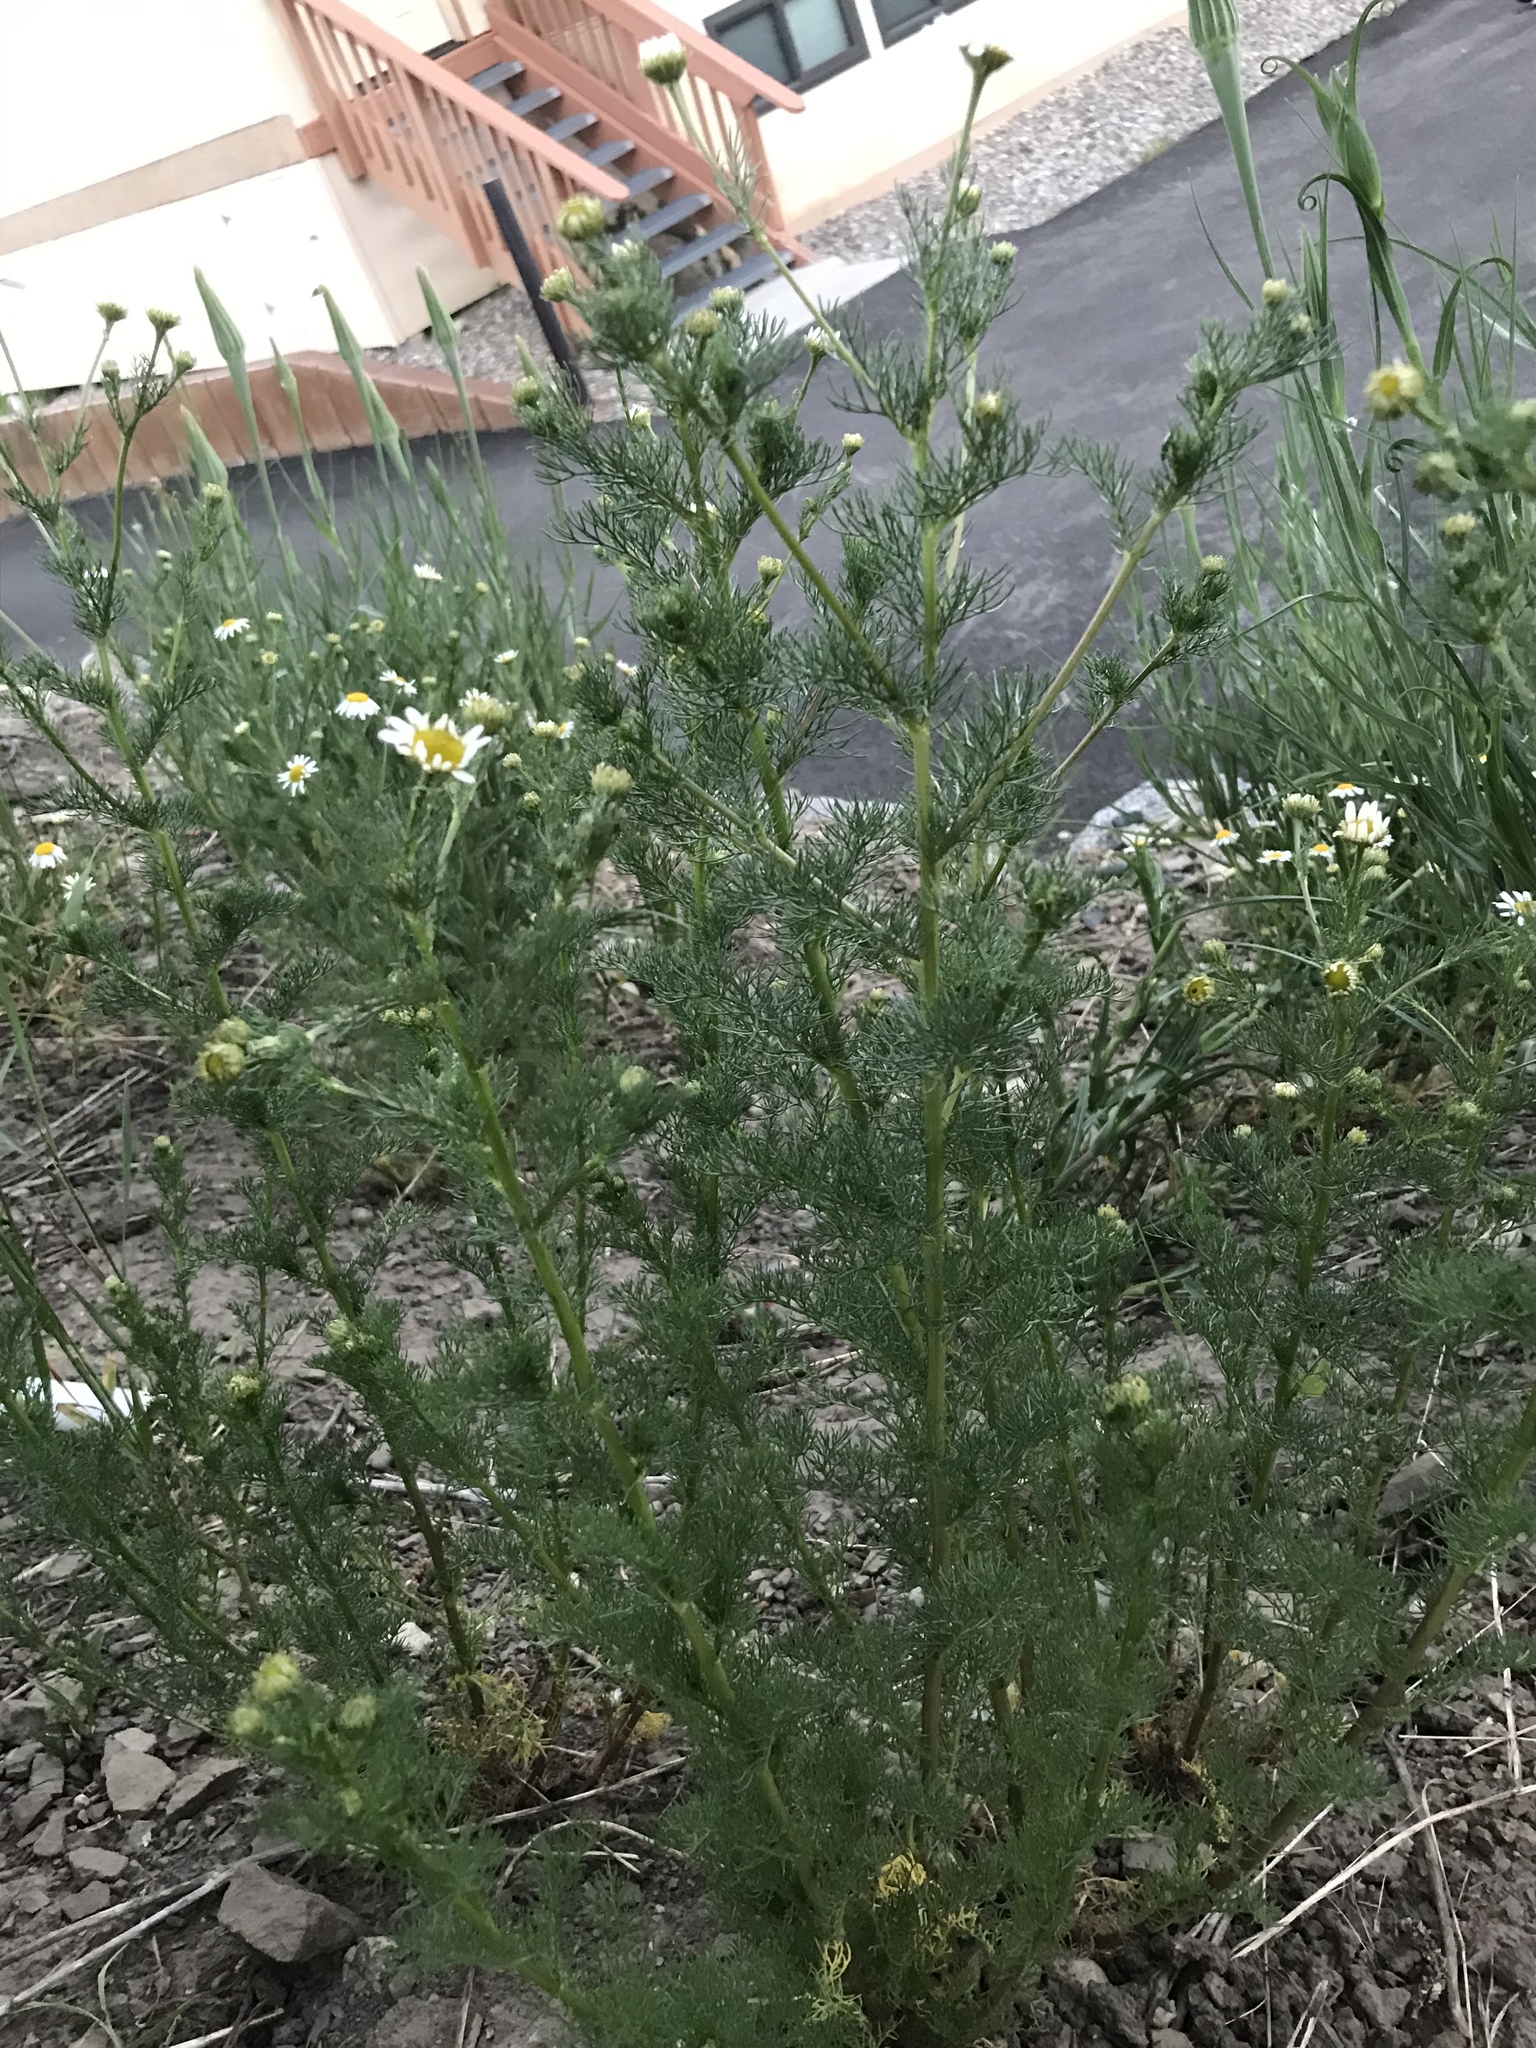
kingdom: Plantae
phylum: Tracheophyta
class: Magnoliopsida
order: Asterales
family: Asteraceae
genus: Tripleurospermum
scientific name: Tripleurospermum inodorum
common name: Scentless mayweed
